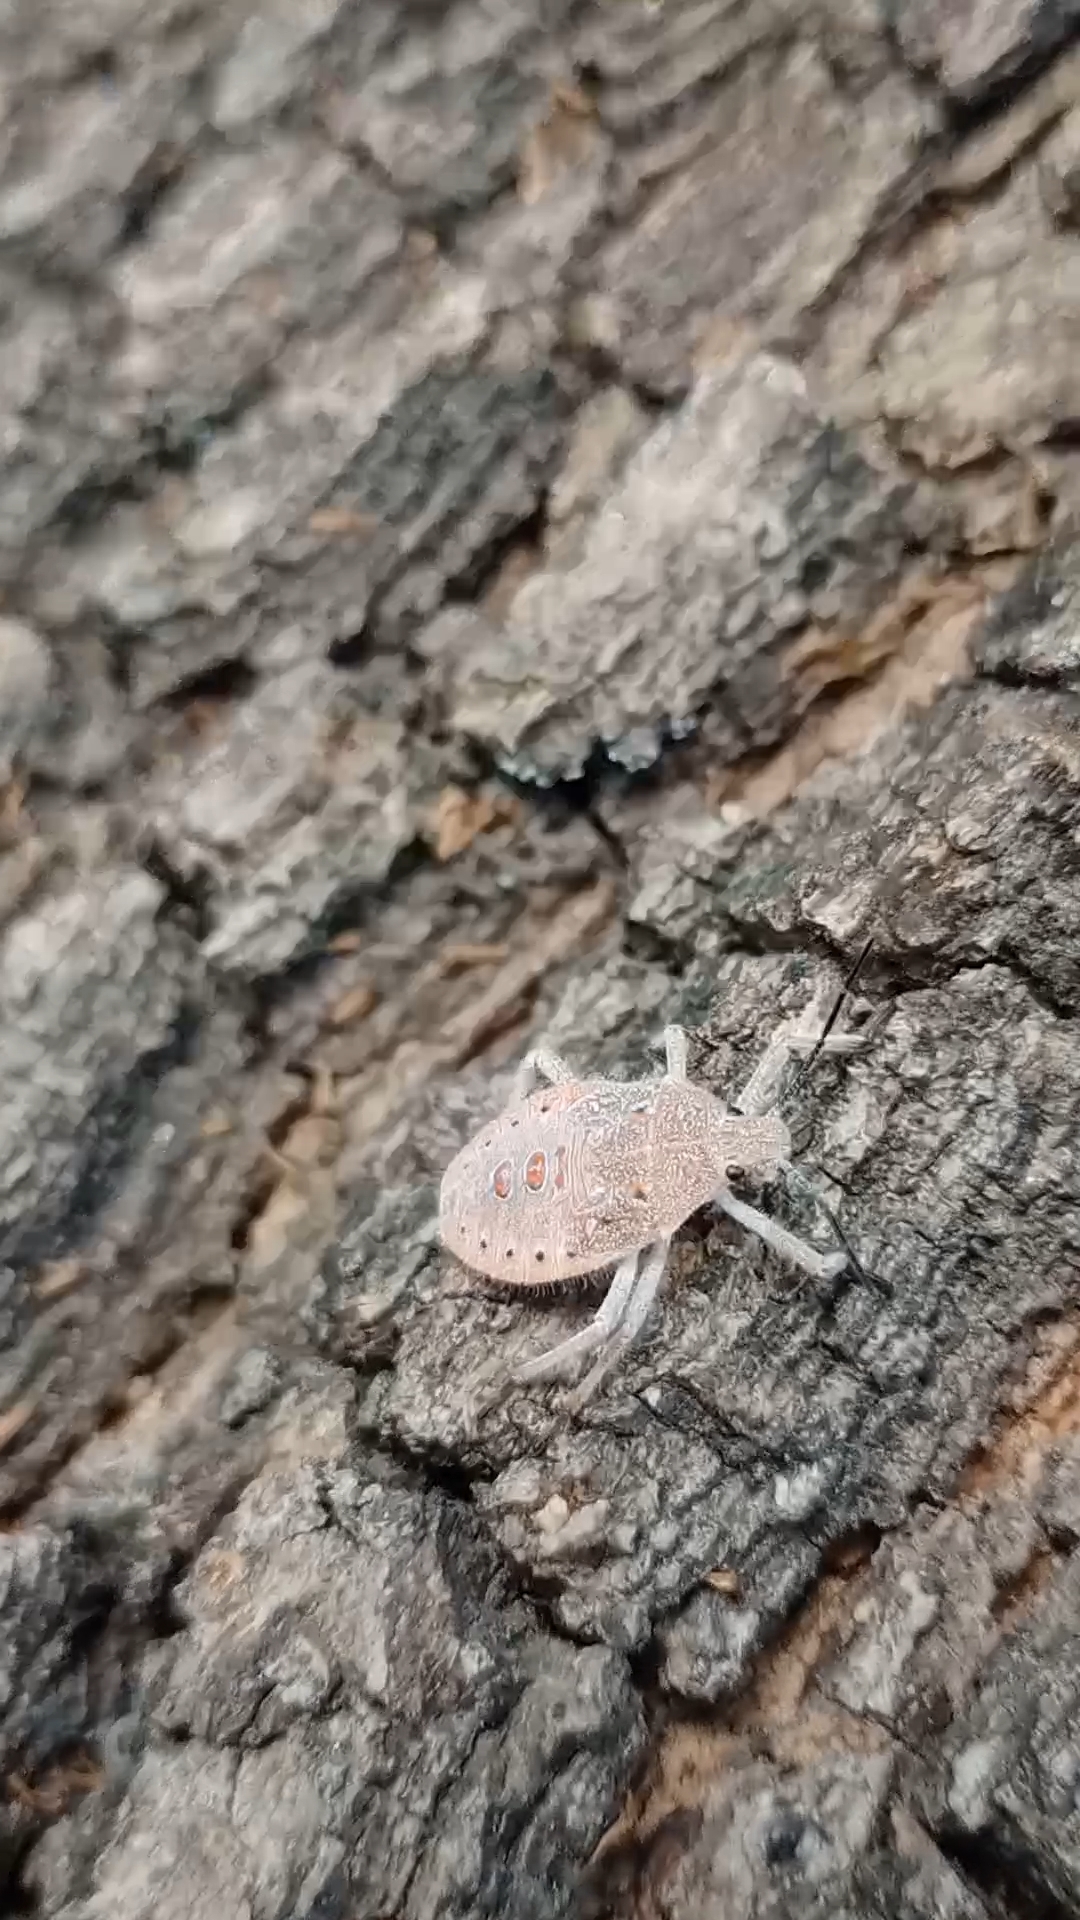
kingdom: Animalia
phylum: Arthropoda
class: Insecta
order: Hemiptera
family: Pentatomidae
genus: Apodiphus
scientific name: Apodiphus
